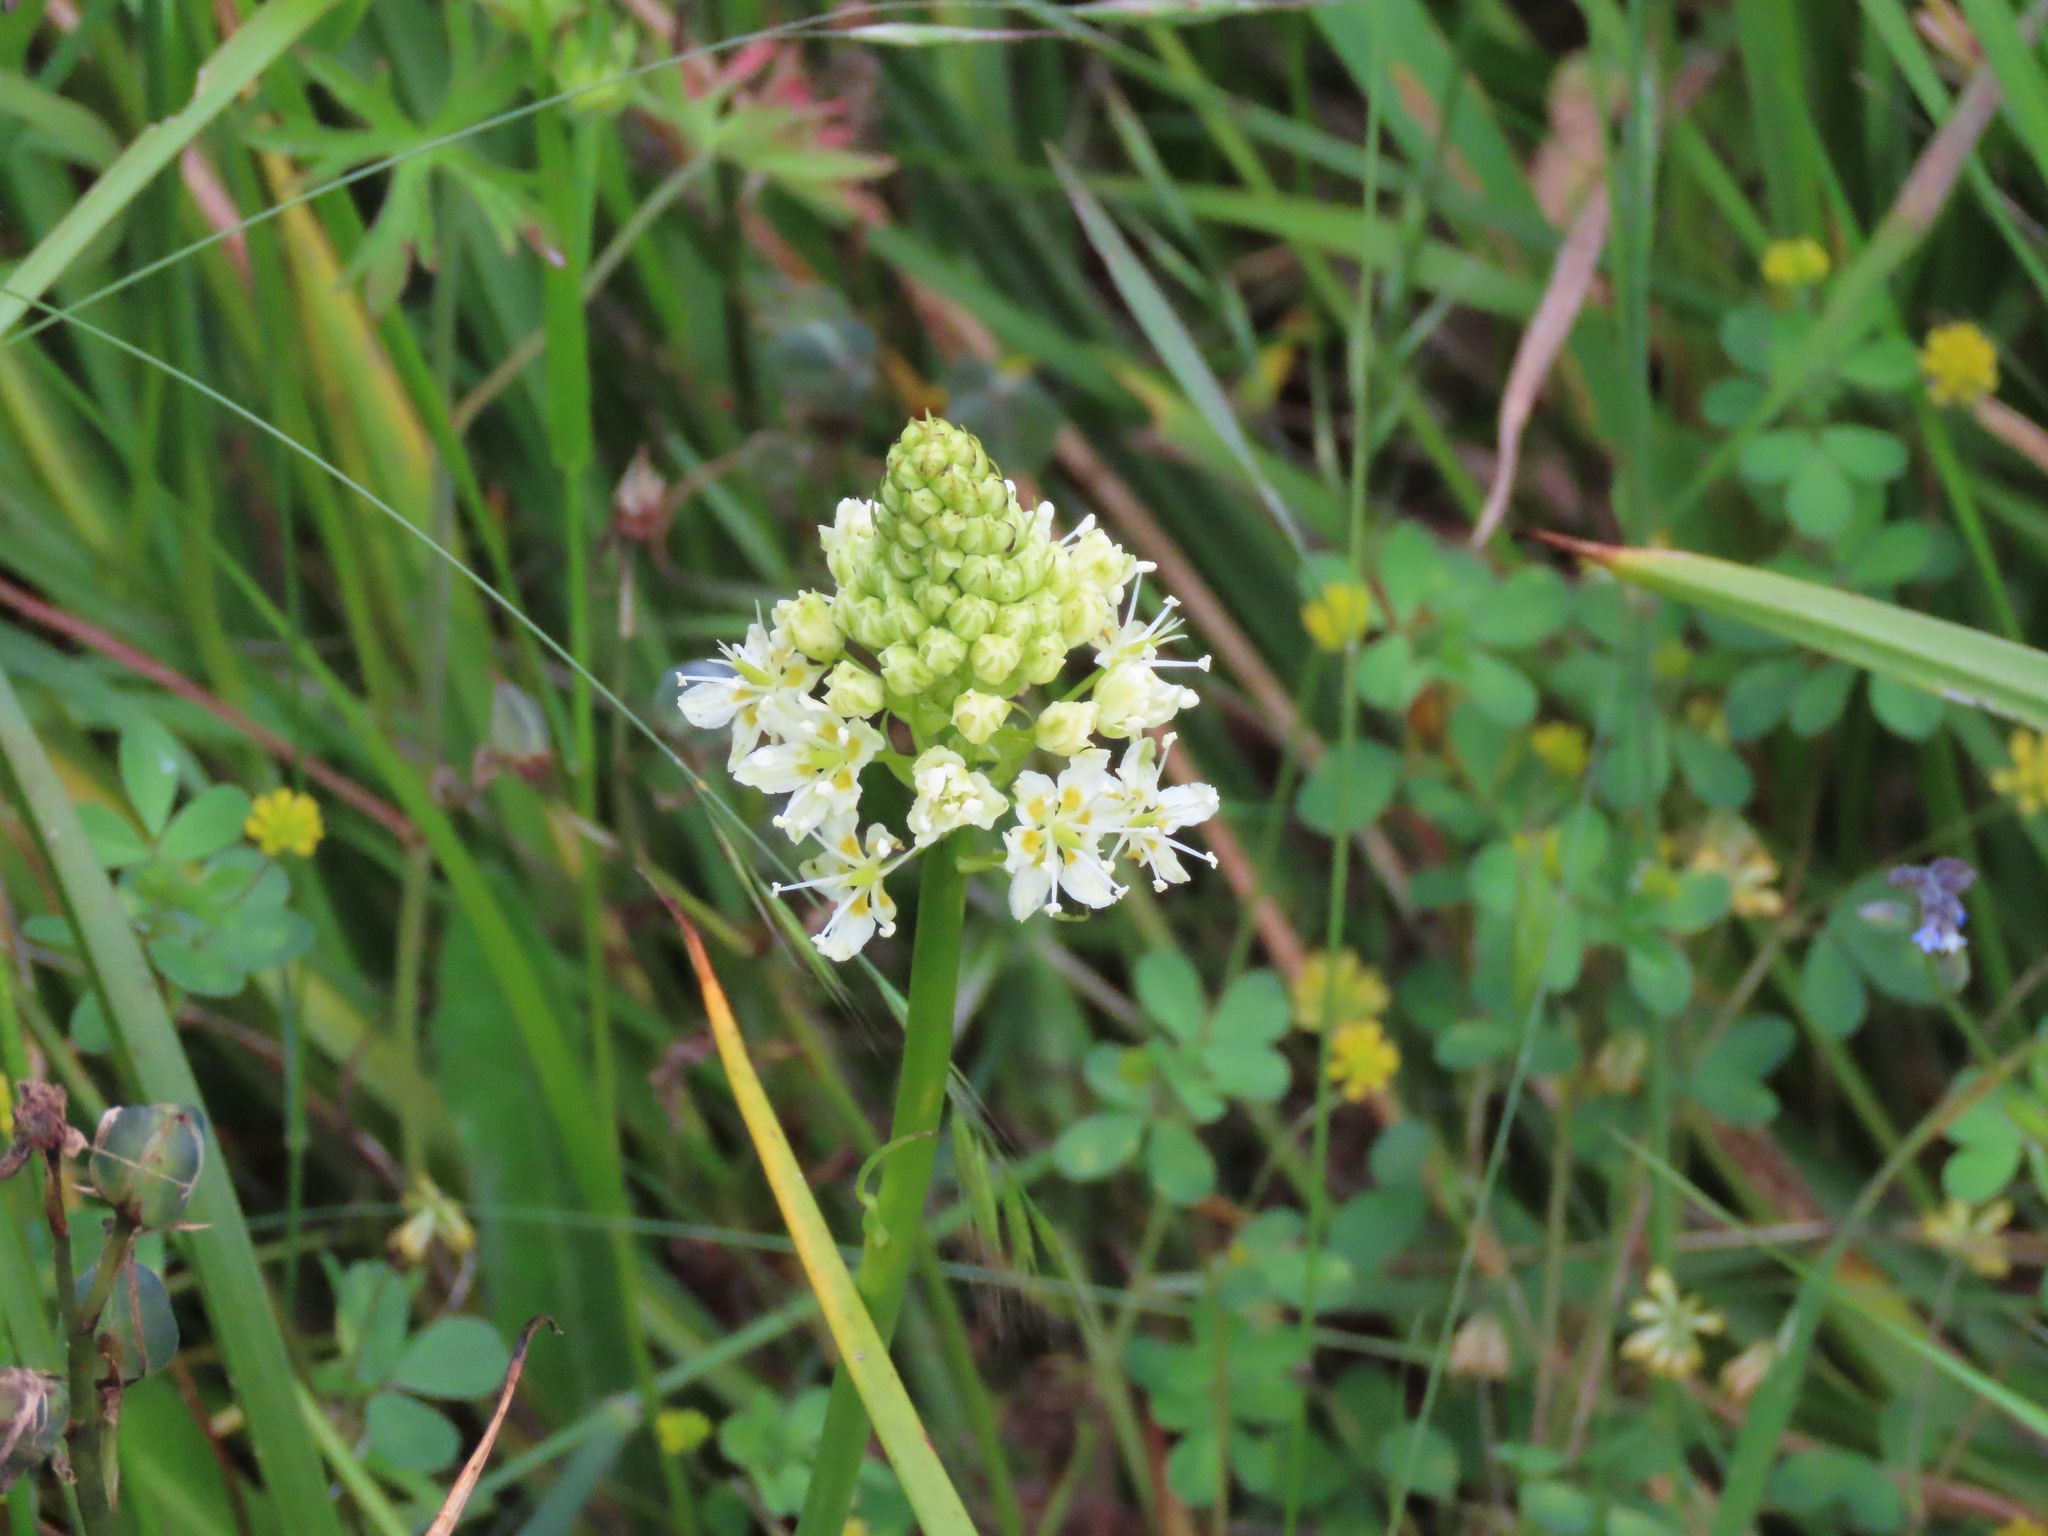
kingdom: Plantae
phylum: Tracheophyta
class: Liliopsida
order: Liliales
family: Melanthiaceae
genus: Toxicoscordion
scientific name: Toxicoscordion venenosum
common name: Meadow death camas
